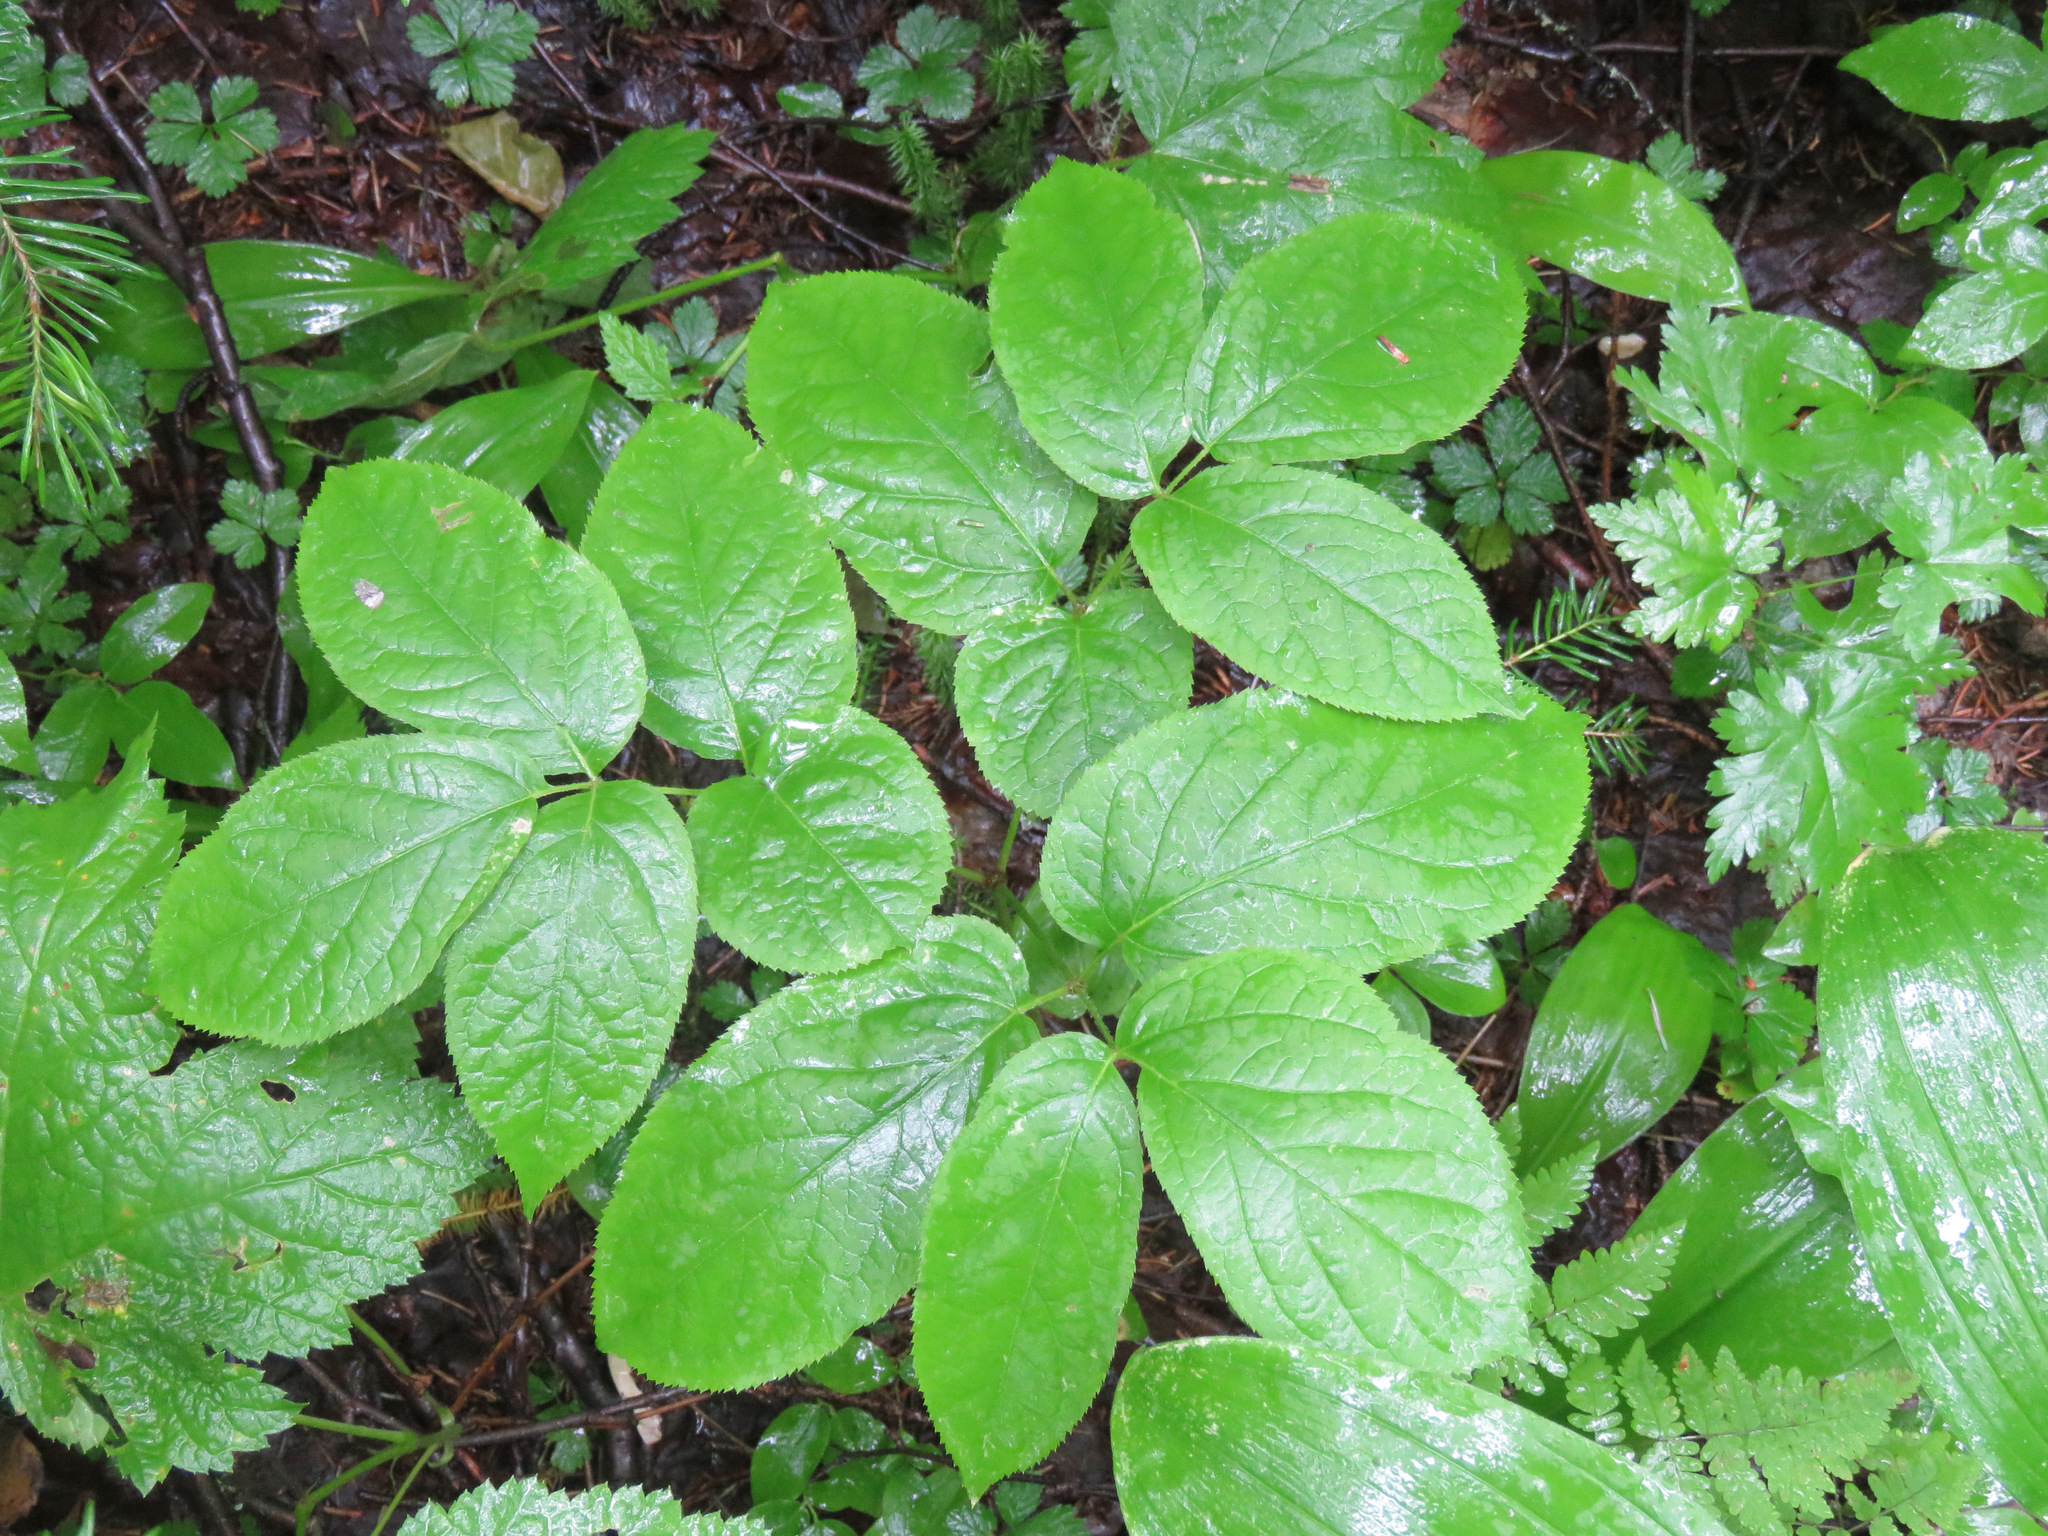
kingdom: Plantae
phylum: Tracheophyta
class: Magnoliopsida
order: Apiales
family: Araliaceae
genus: Aralia
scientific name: Aralia nudicaulis
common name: Wild sarsaparilla
